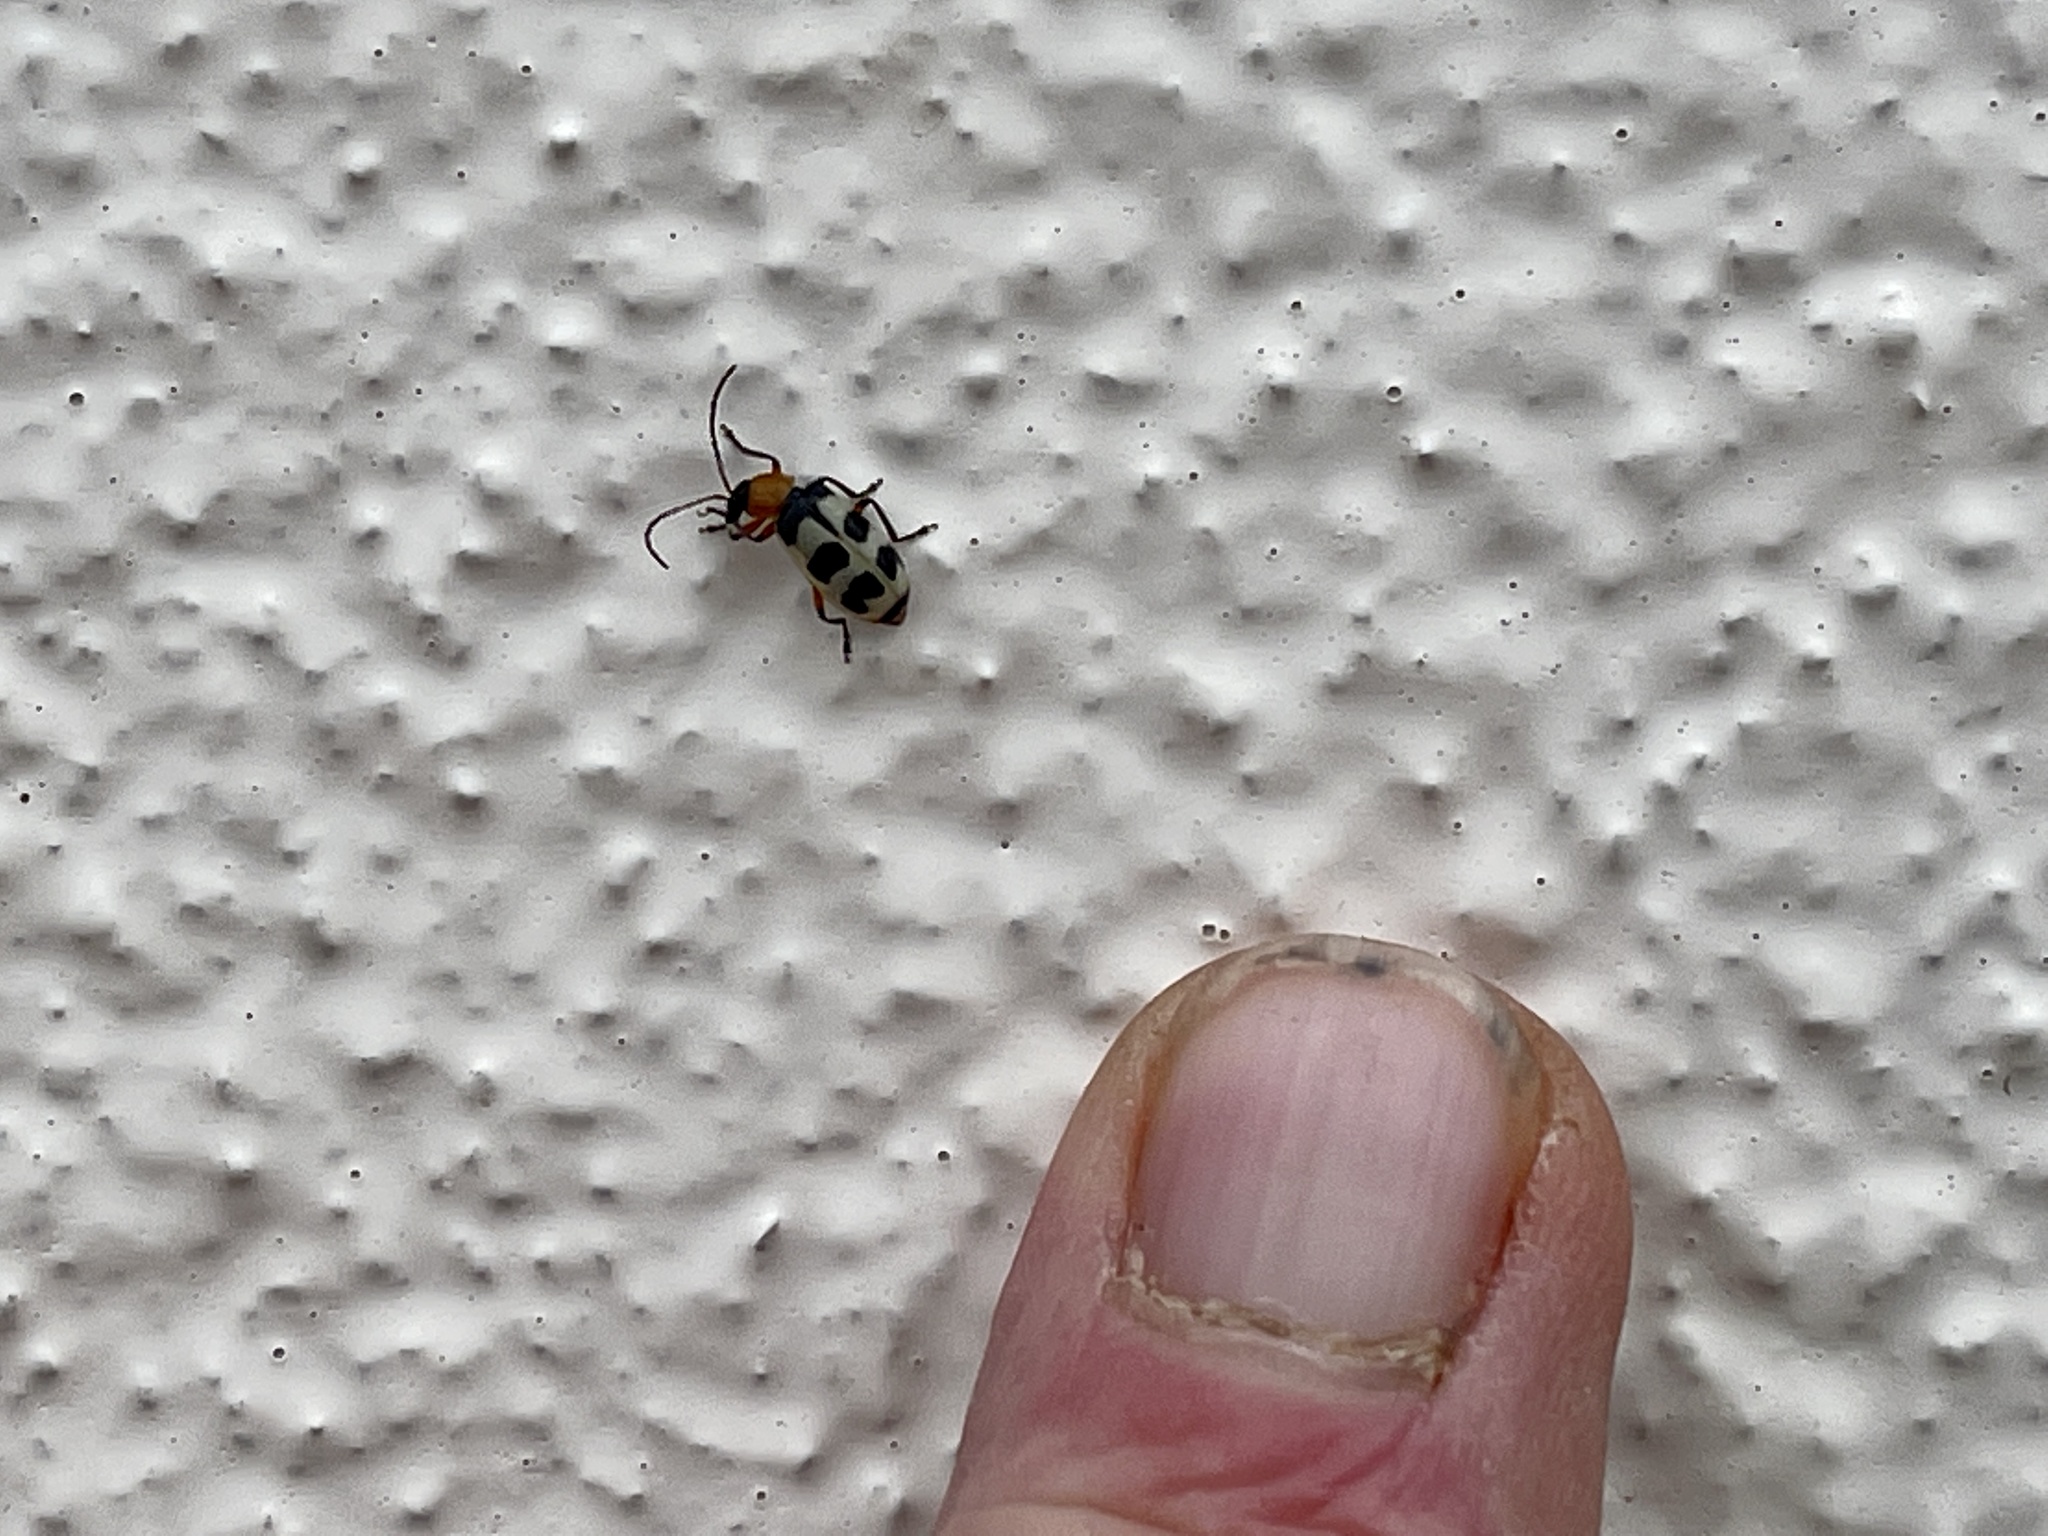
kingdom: Animalia
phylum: Arthropoda
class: Insecta
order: Coleoptera
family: Chrysomelidae
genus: Paranapiacaba
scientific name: Paranapiacaba tricincta
